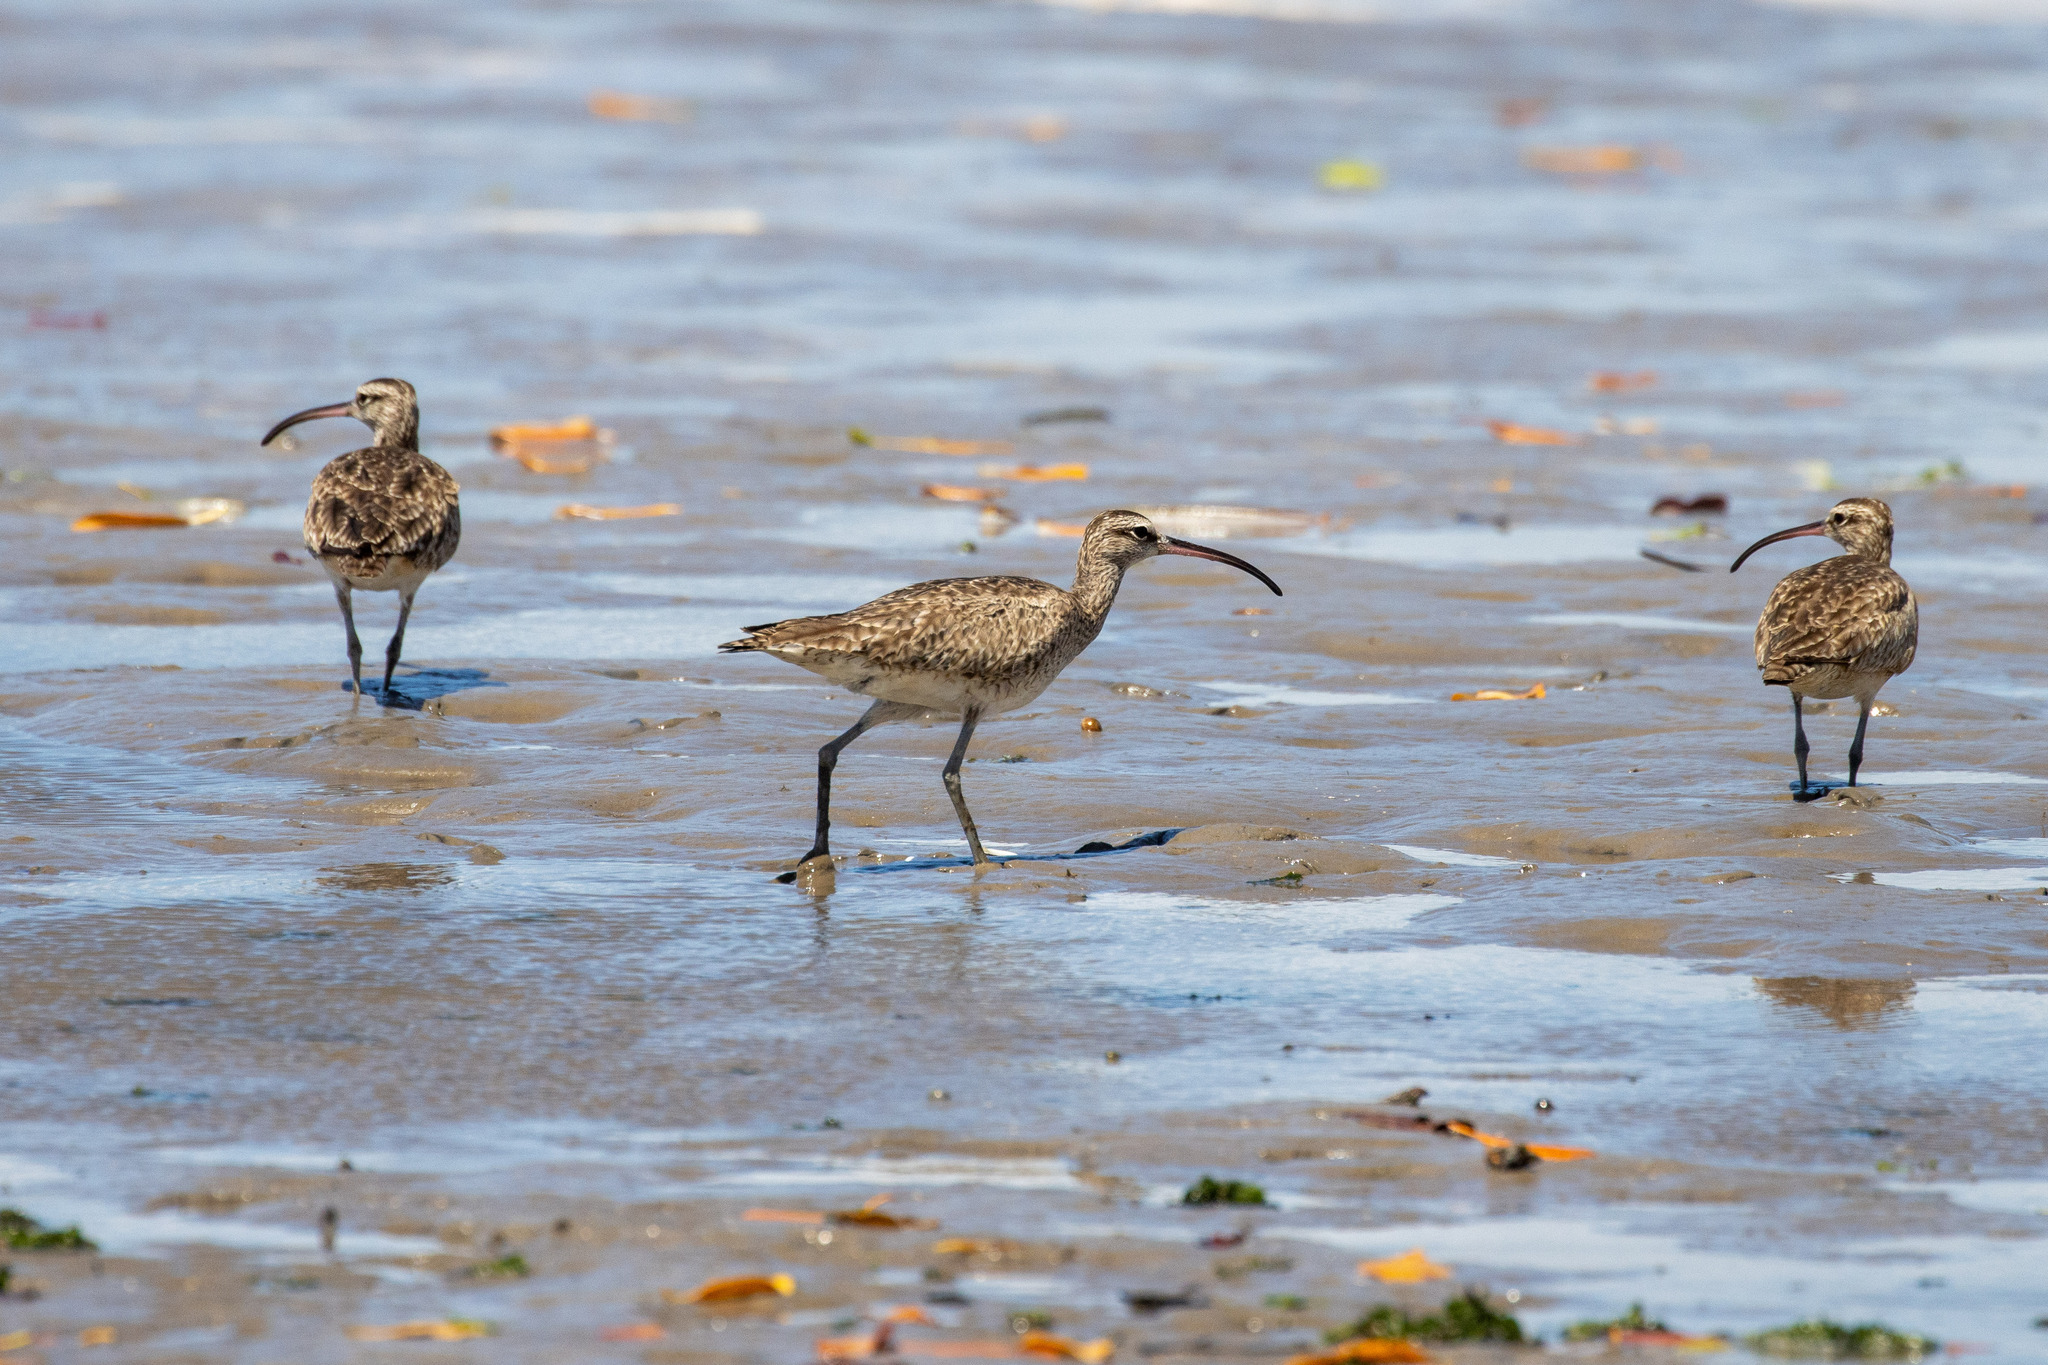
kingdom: Animalia
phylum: Chordata
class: Aves
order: Charadriiformes
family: Scolopacidae
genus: Numenius
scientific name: Numenius hudsonicus
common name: Hudsonian whimbrel
